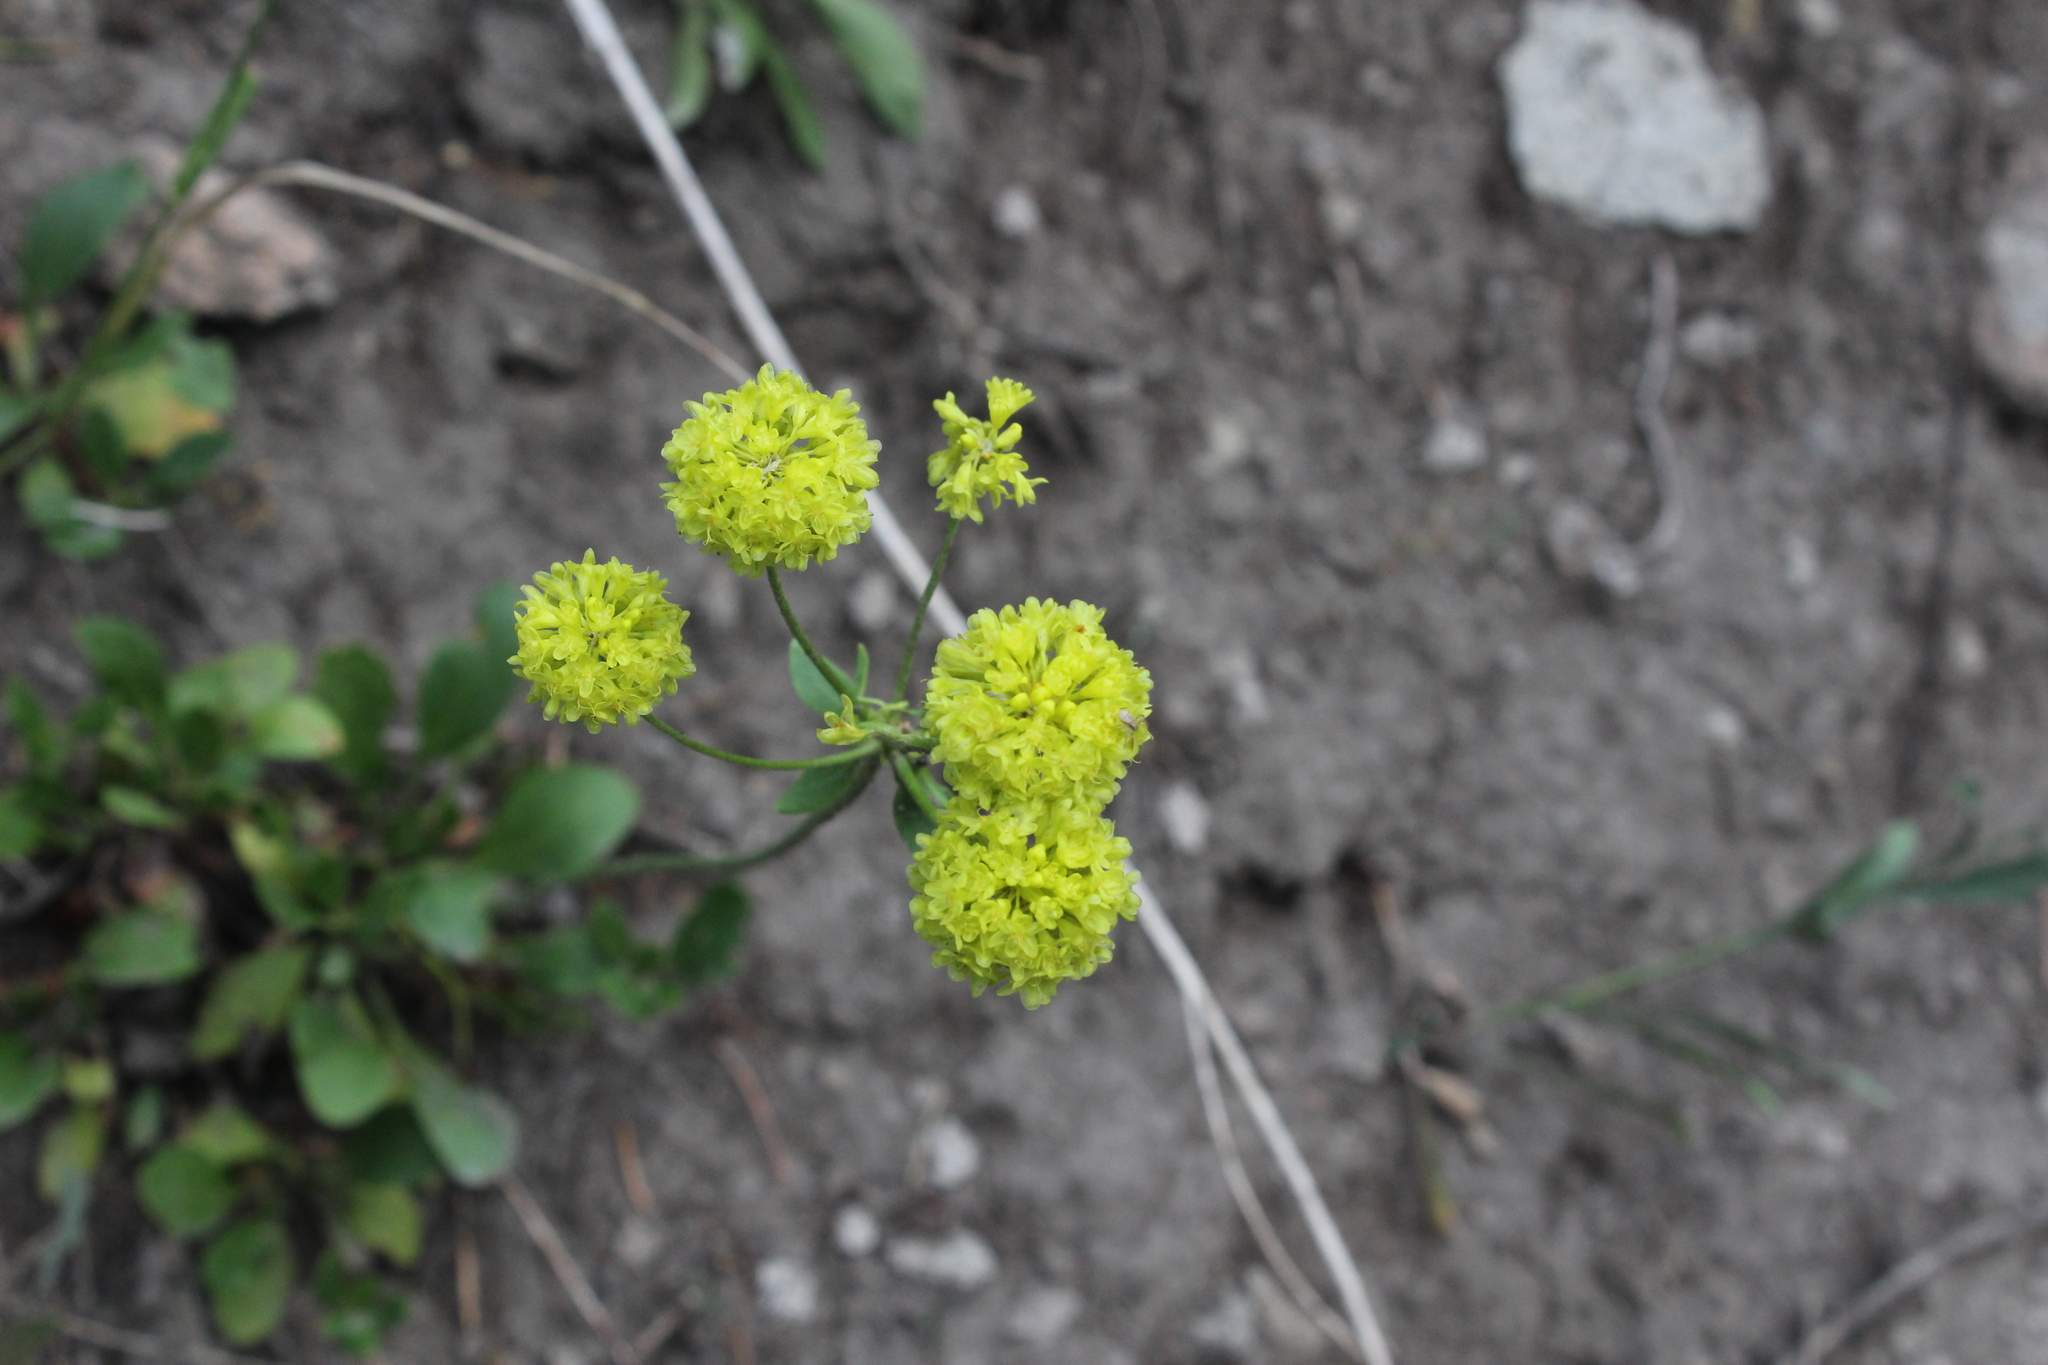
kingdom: Plantae
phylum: Tracheophyta
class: Magnoliopsida
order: Caryophyllales
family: Polygonaceae
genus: Eriogonum
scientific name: Eriogonum umbellatum
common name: Sulfur-buckwheat
